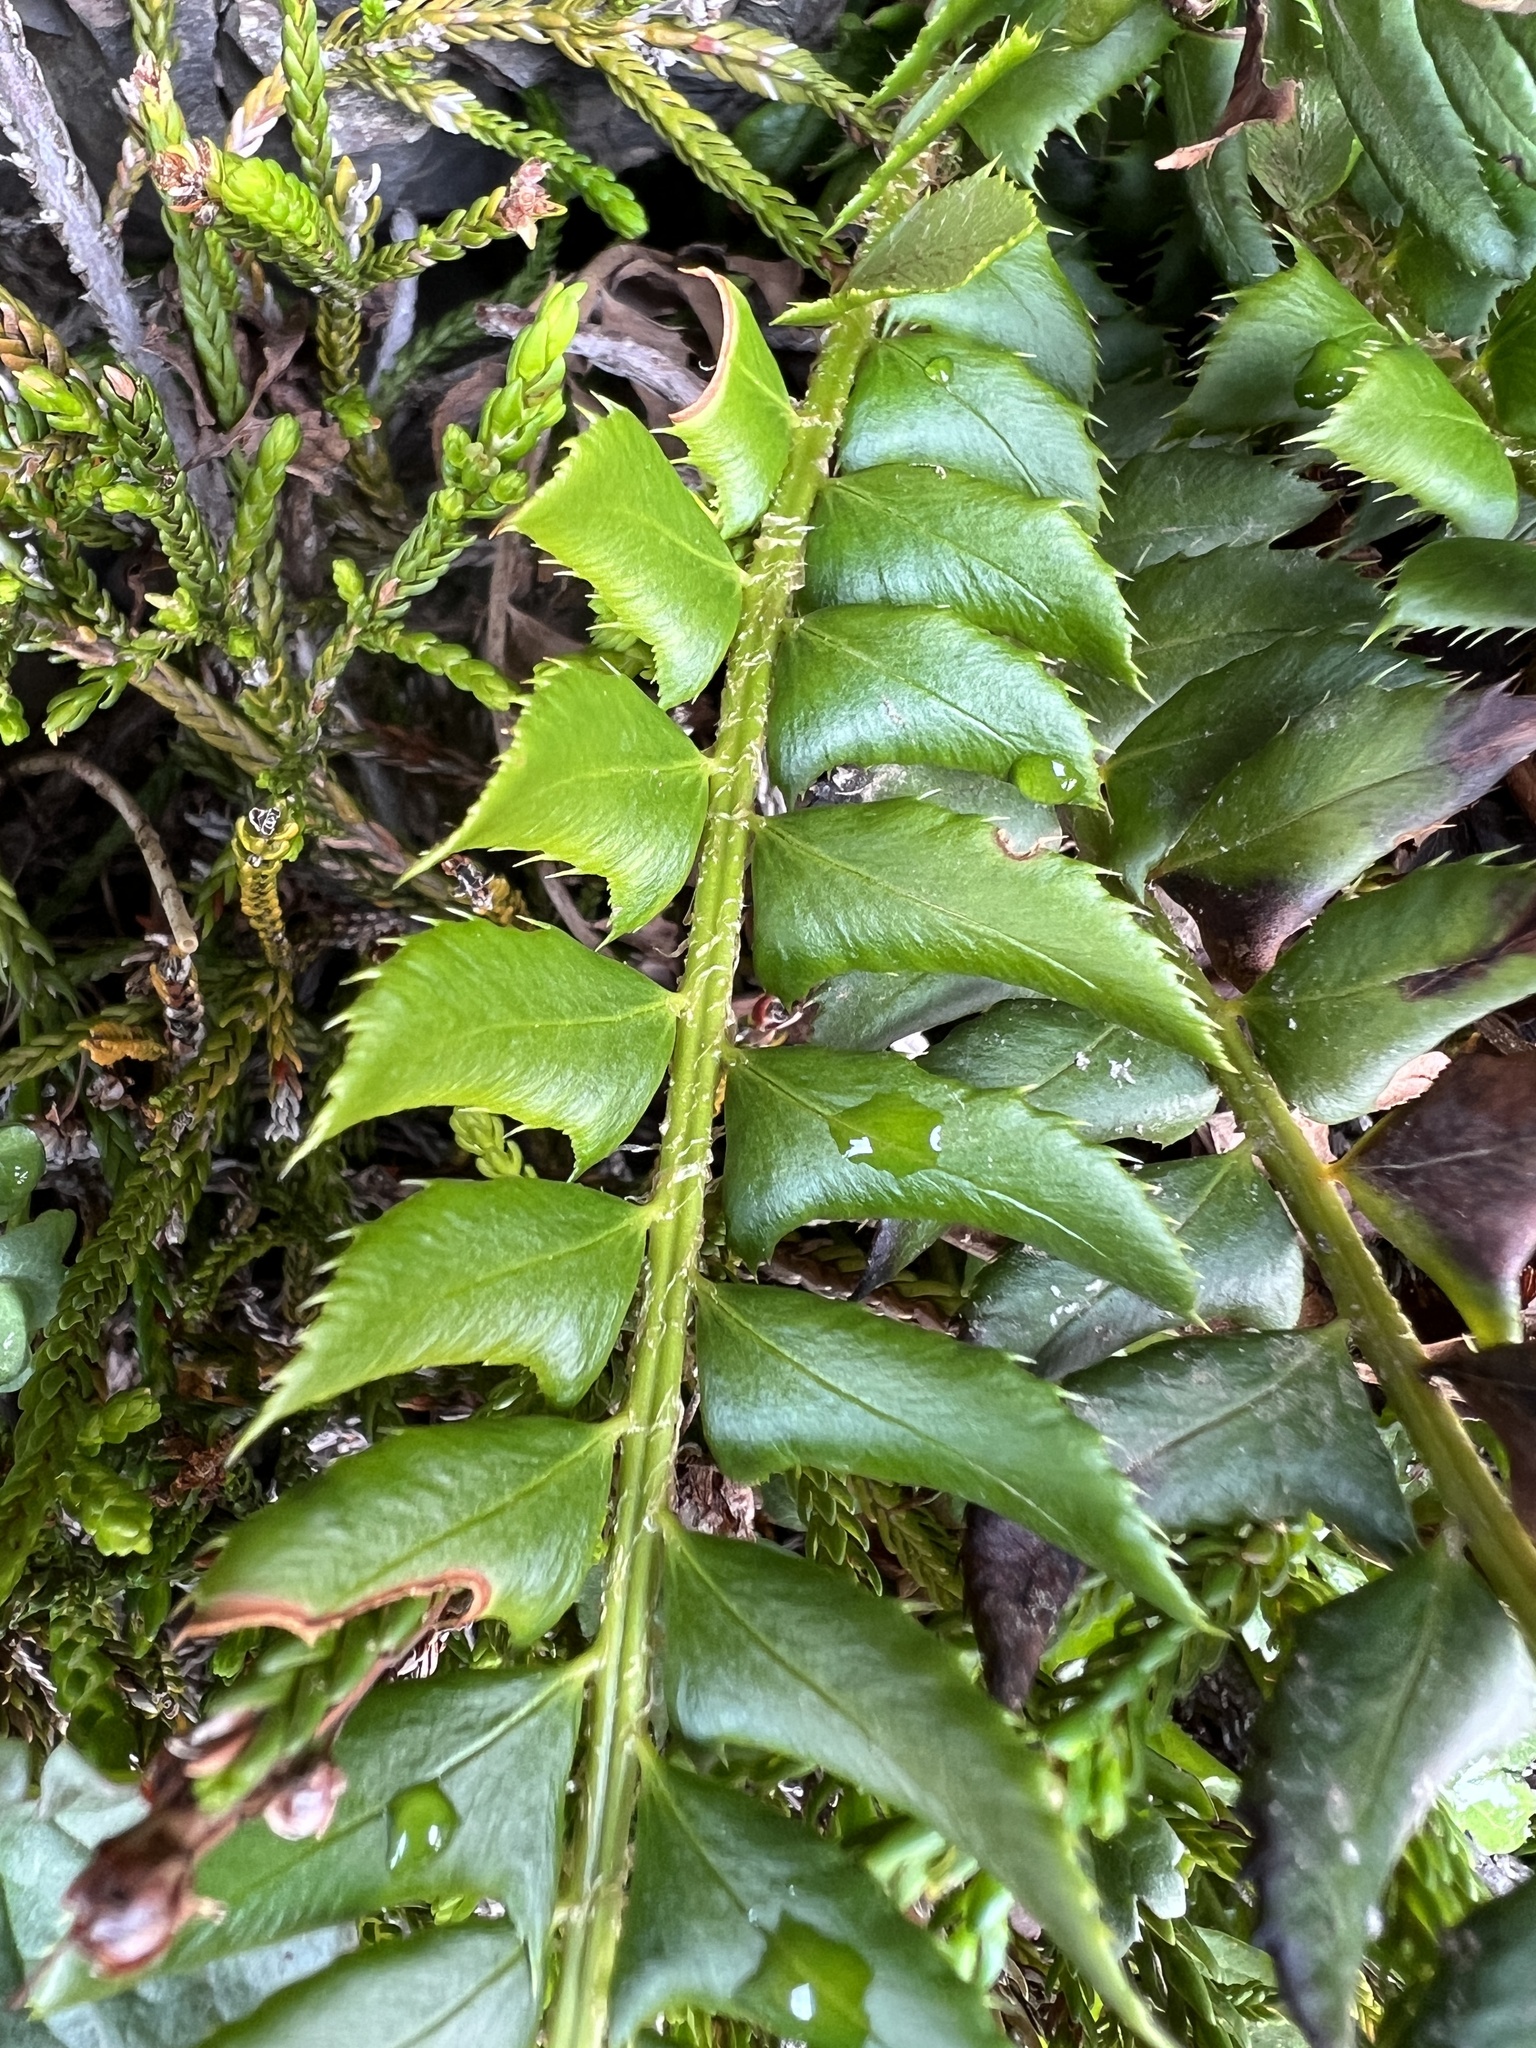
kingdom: Plantae
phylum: Tracheophyta
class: Polypodiopsida
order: Polypodiales
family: Dryopteridaceae
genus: Polystichum
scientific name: Polystichum lonchitis
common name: Holly fern
